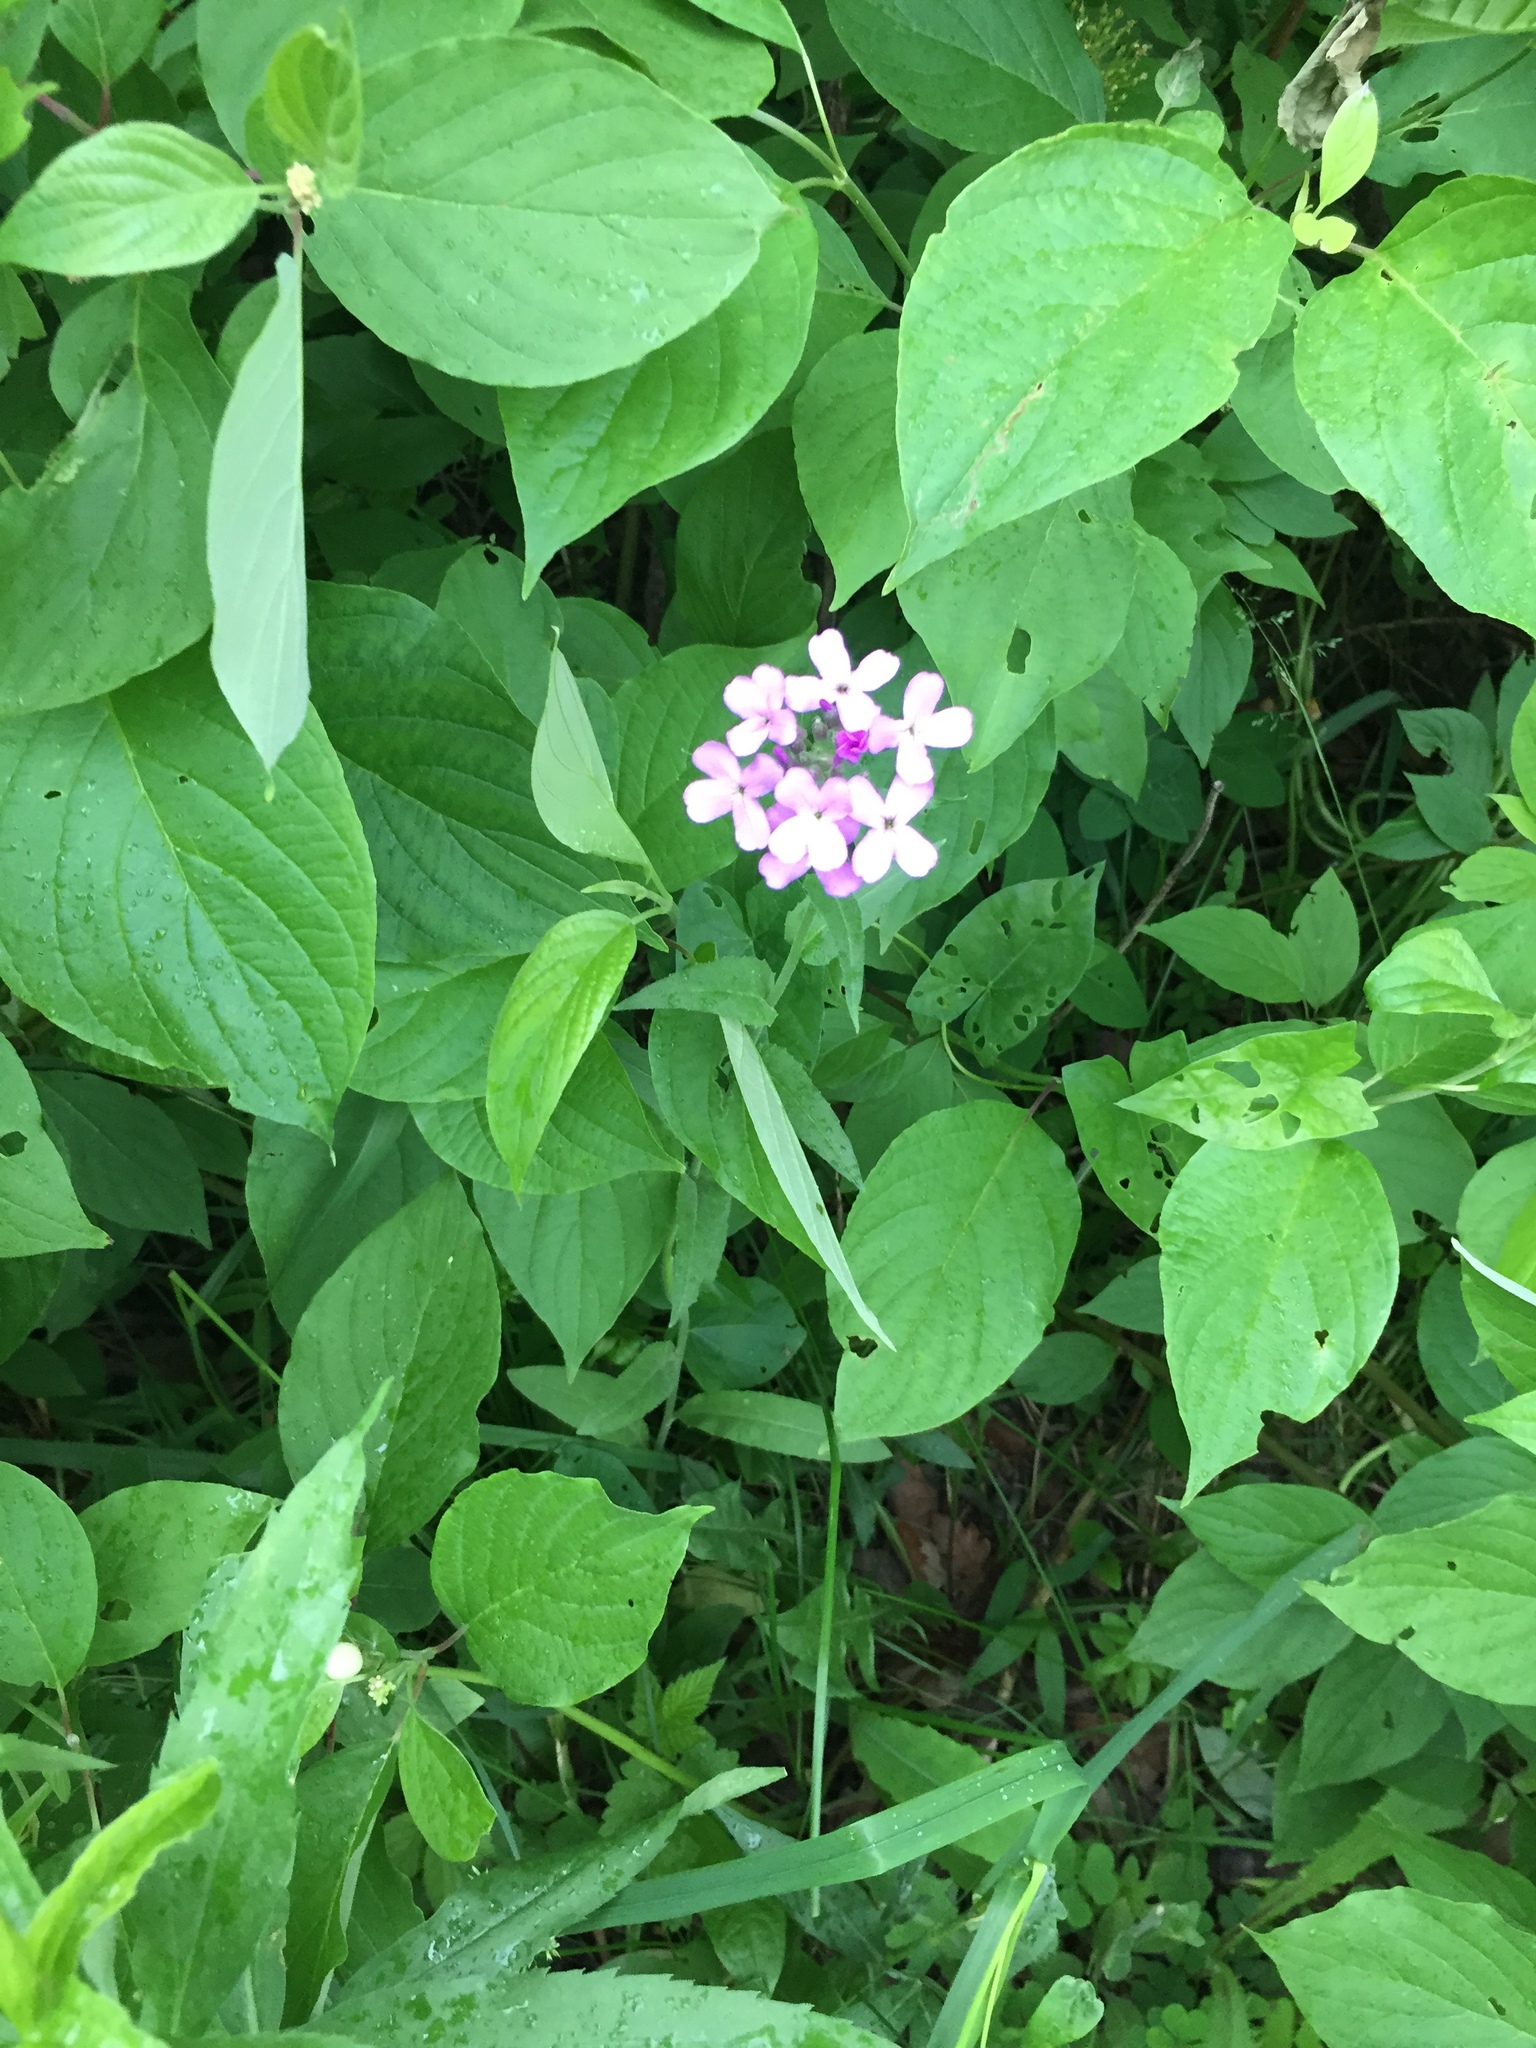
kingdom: Plantae
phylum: Tracheophyta
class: Magnoliopsida
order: Brassicales
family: Brassicaceae
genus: Hesperis
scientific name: Hesperis matronalis
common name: Dame's-violet
